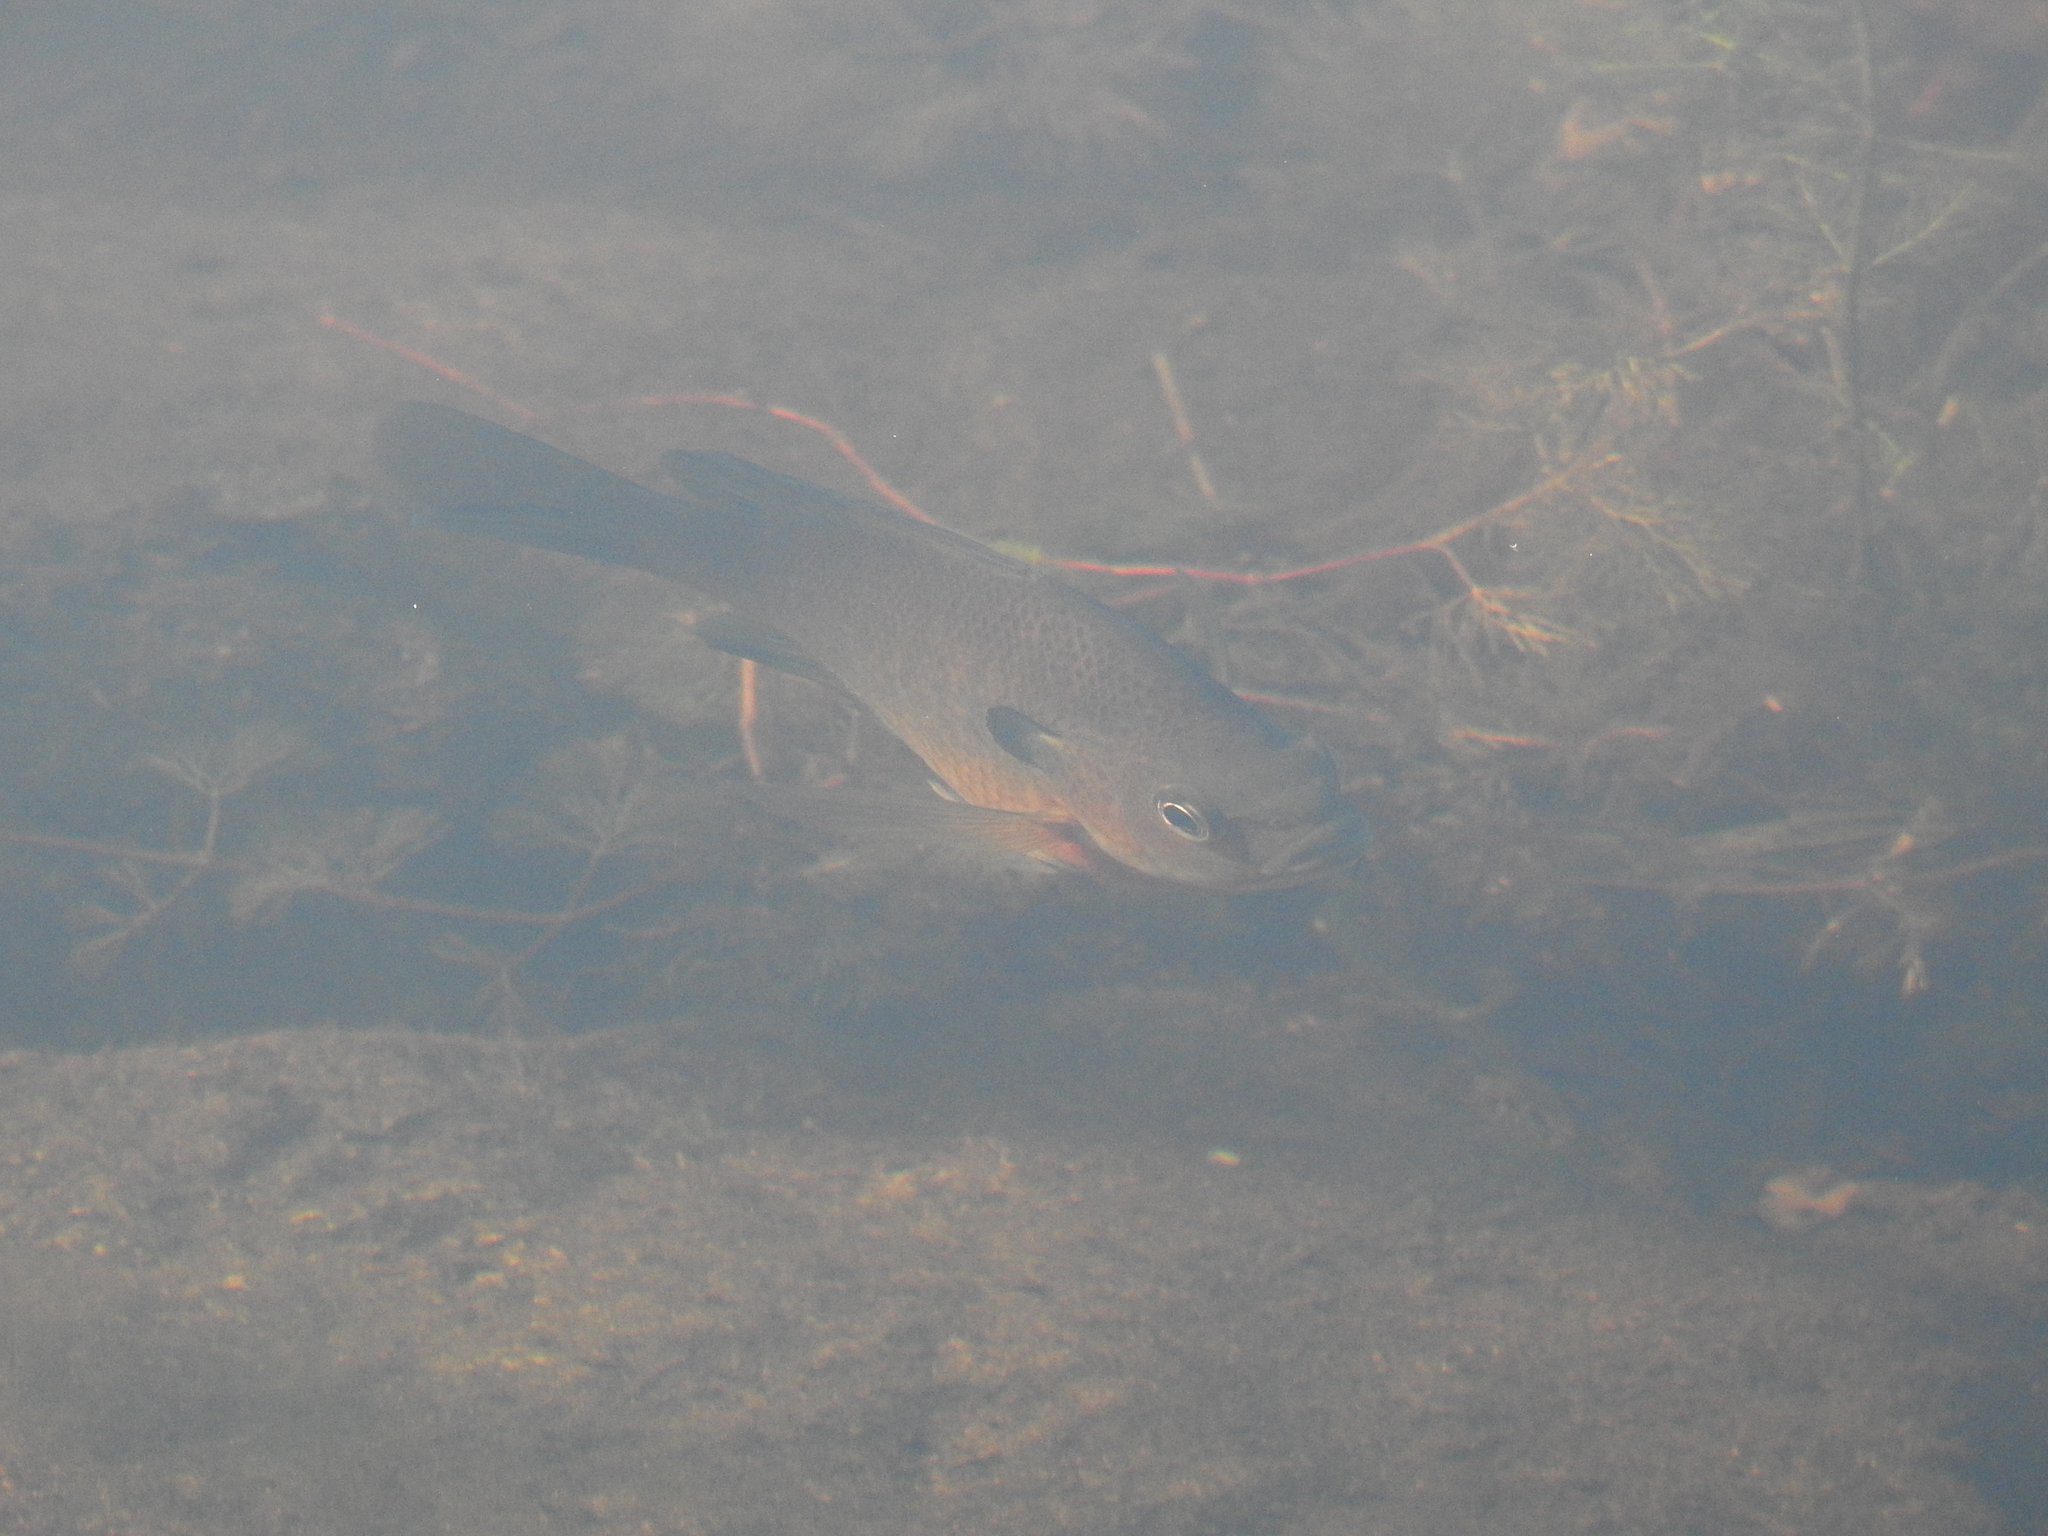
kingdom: Animalia
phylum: Chordata
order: Perciformes
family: Centrarchidae
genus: Lepomis
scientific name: Lepomis macrochirus
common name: Bluegill
